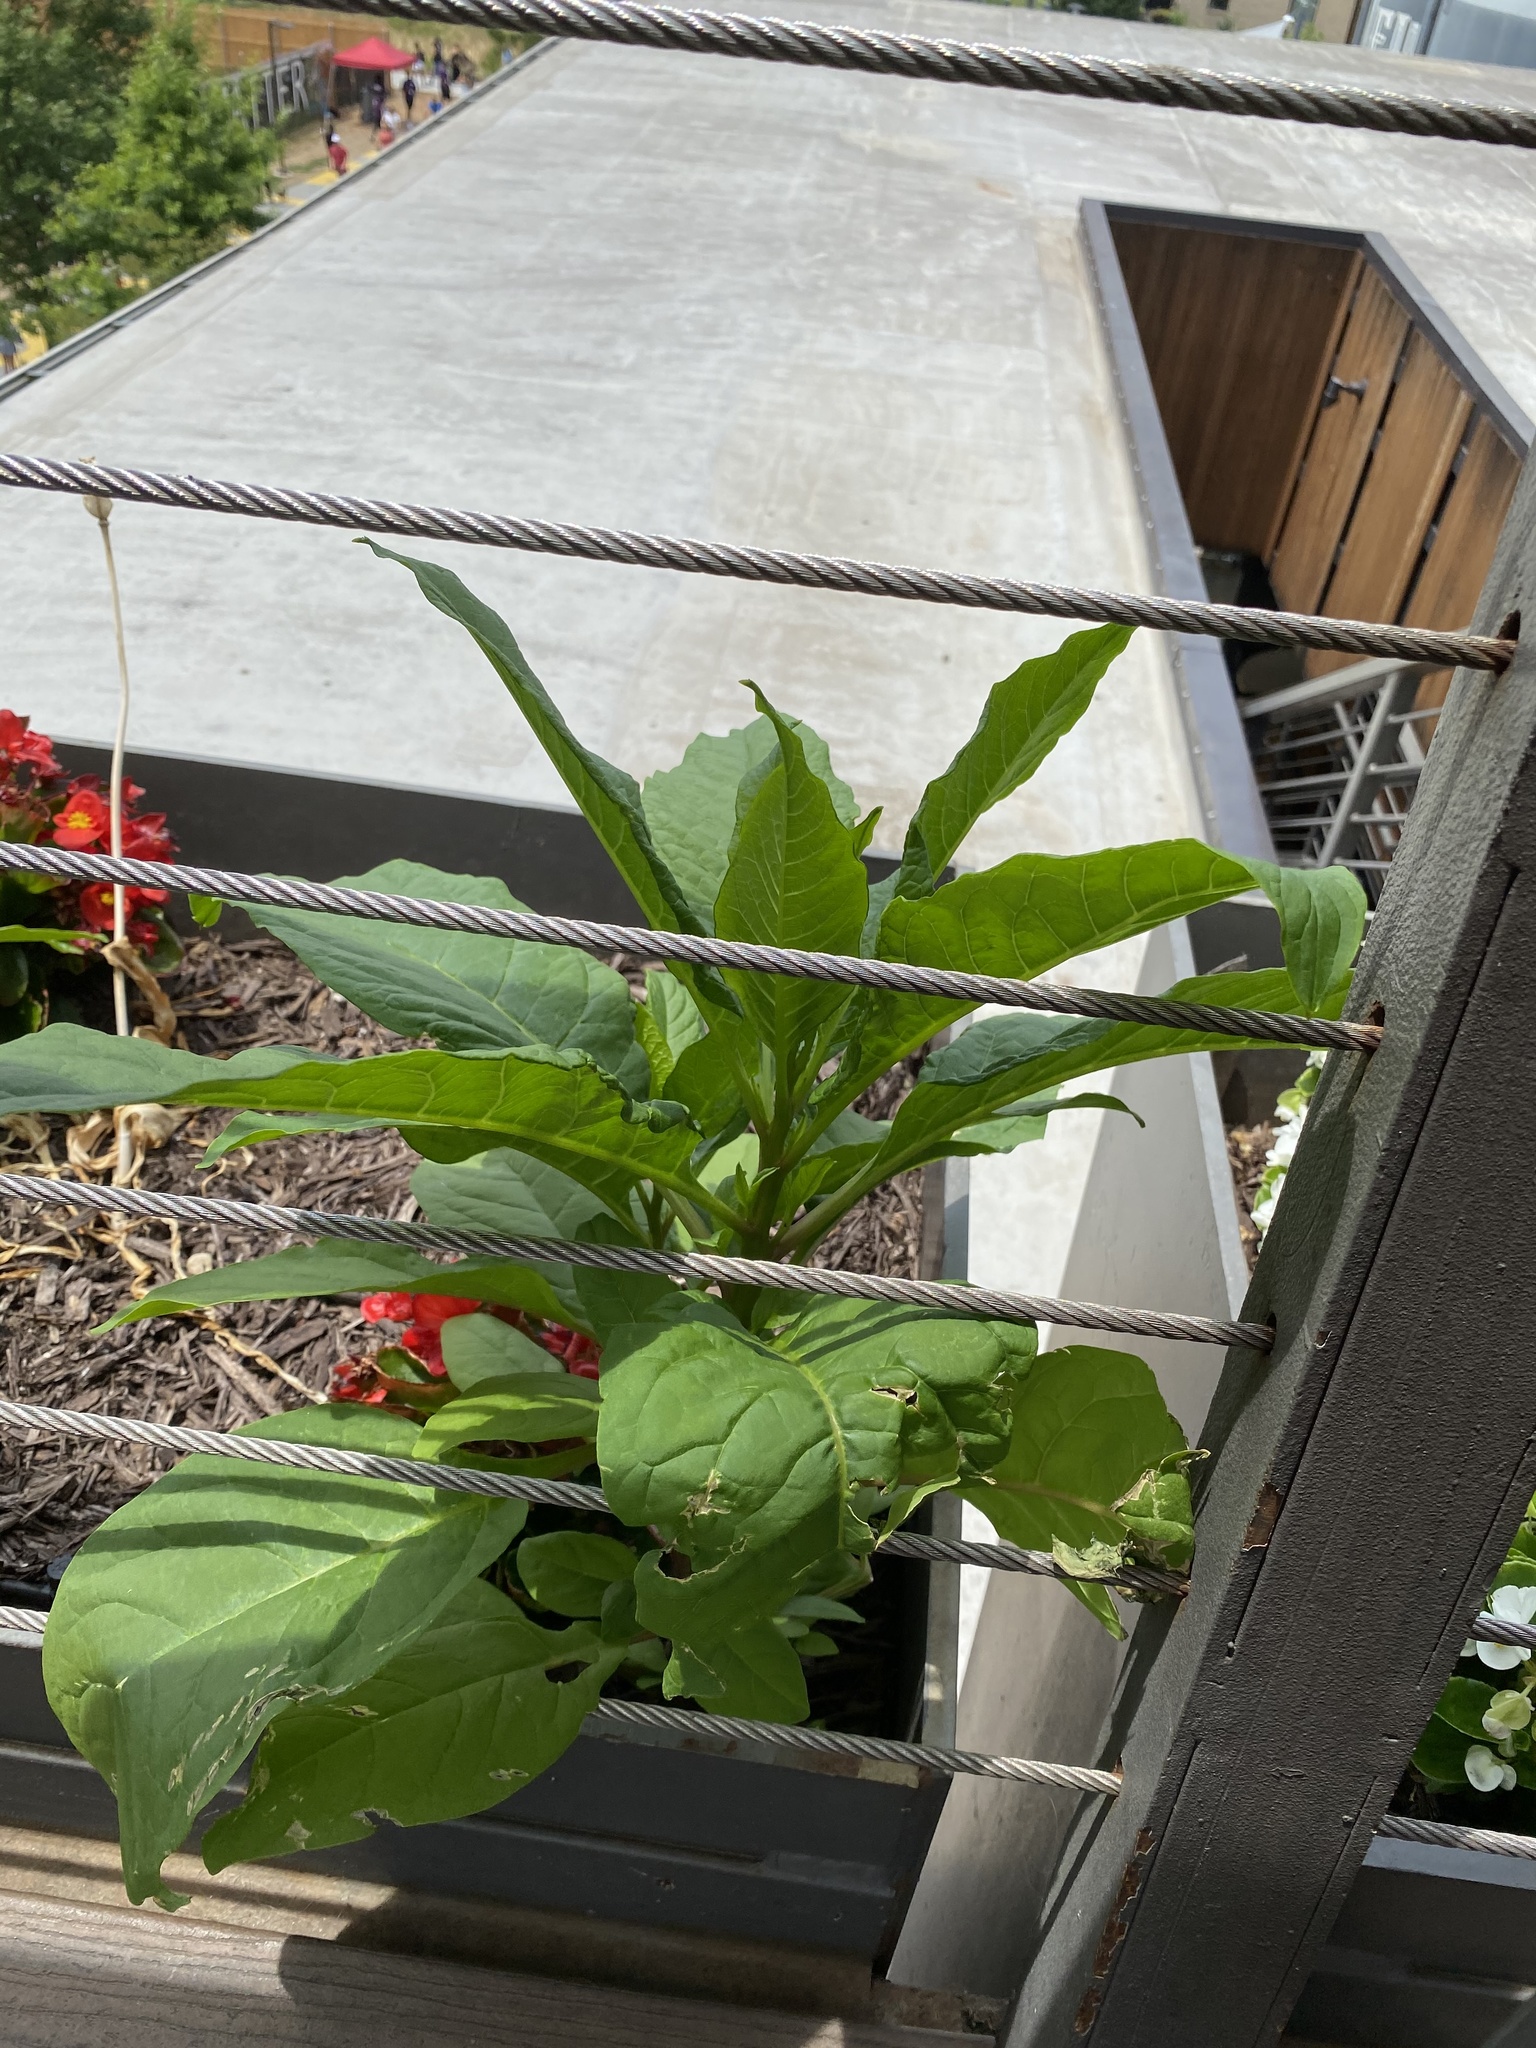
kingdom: Plantae
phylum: Tracheophyta
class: Magnoliopsida
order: Caryophyllales
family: Phytolaccaceae
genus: Phytolacca
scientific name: Phytolacca americana
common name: American pokeweed
